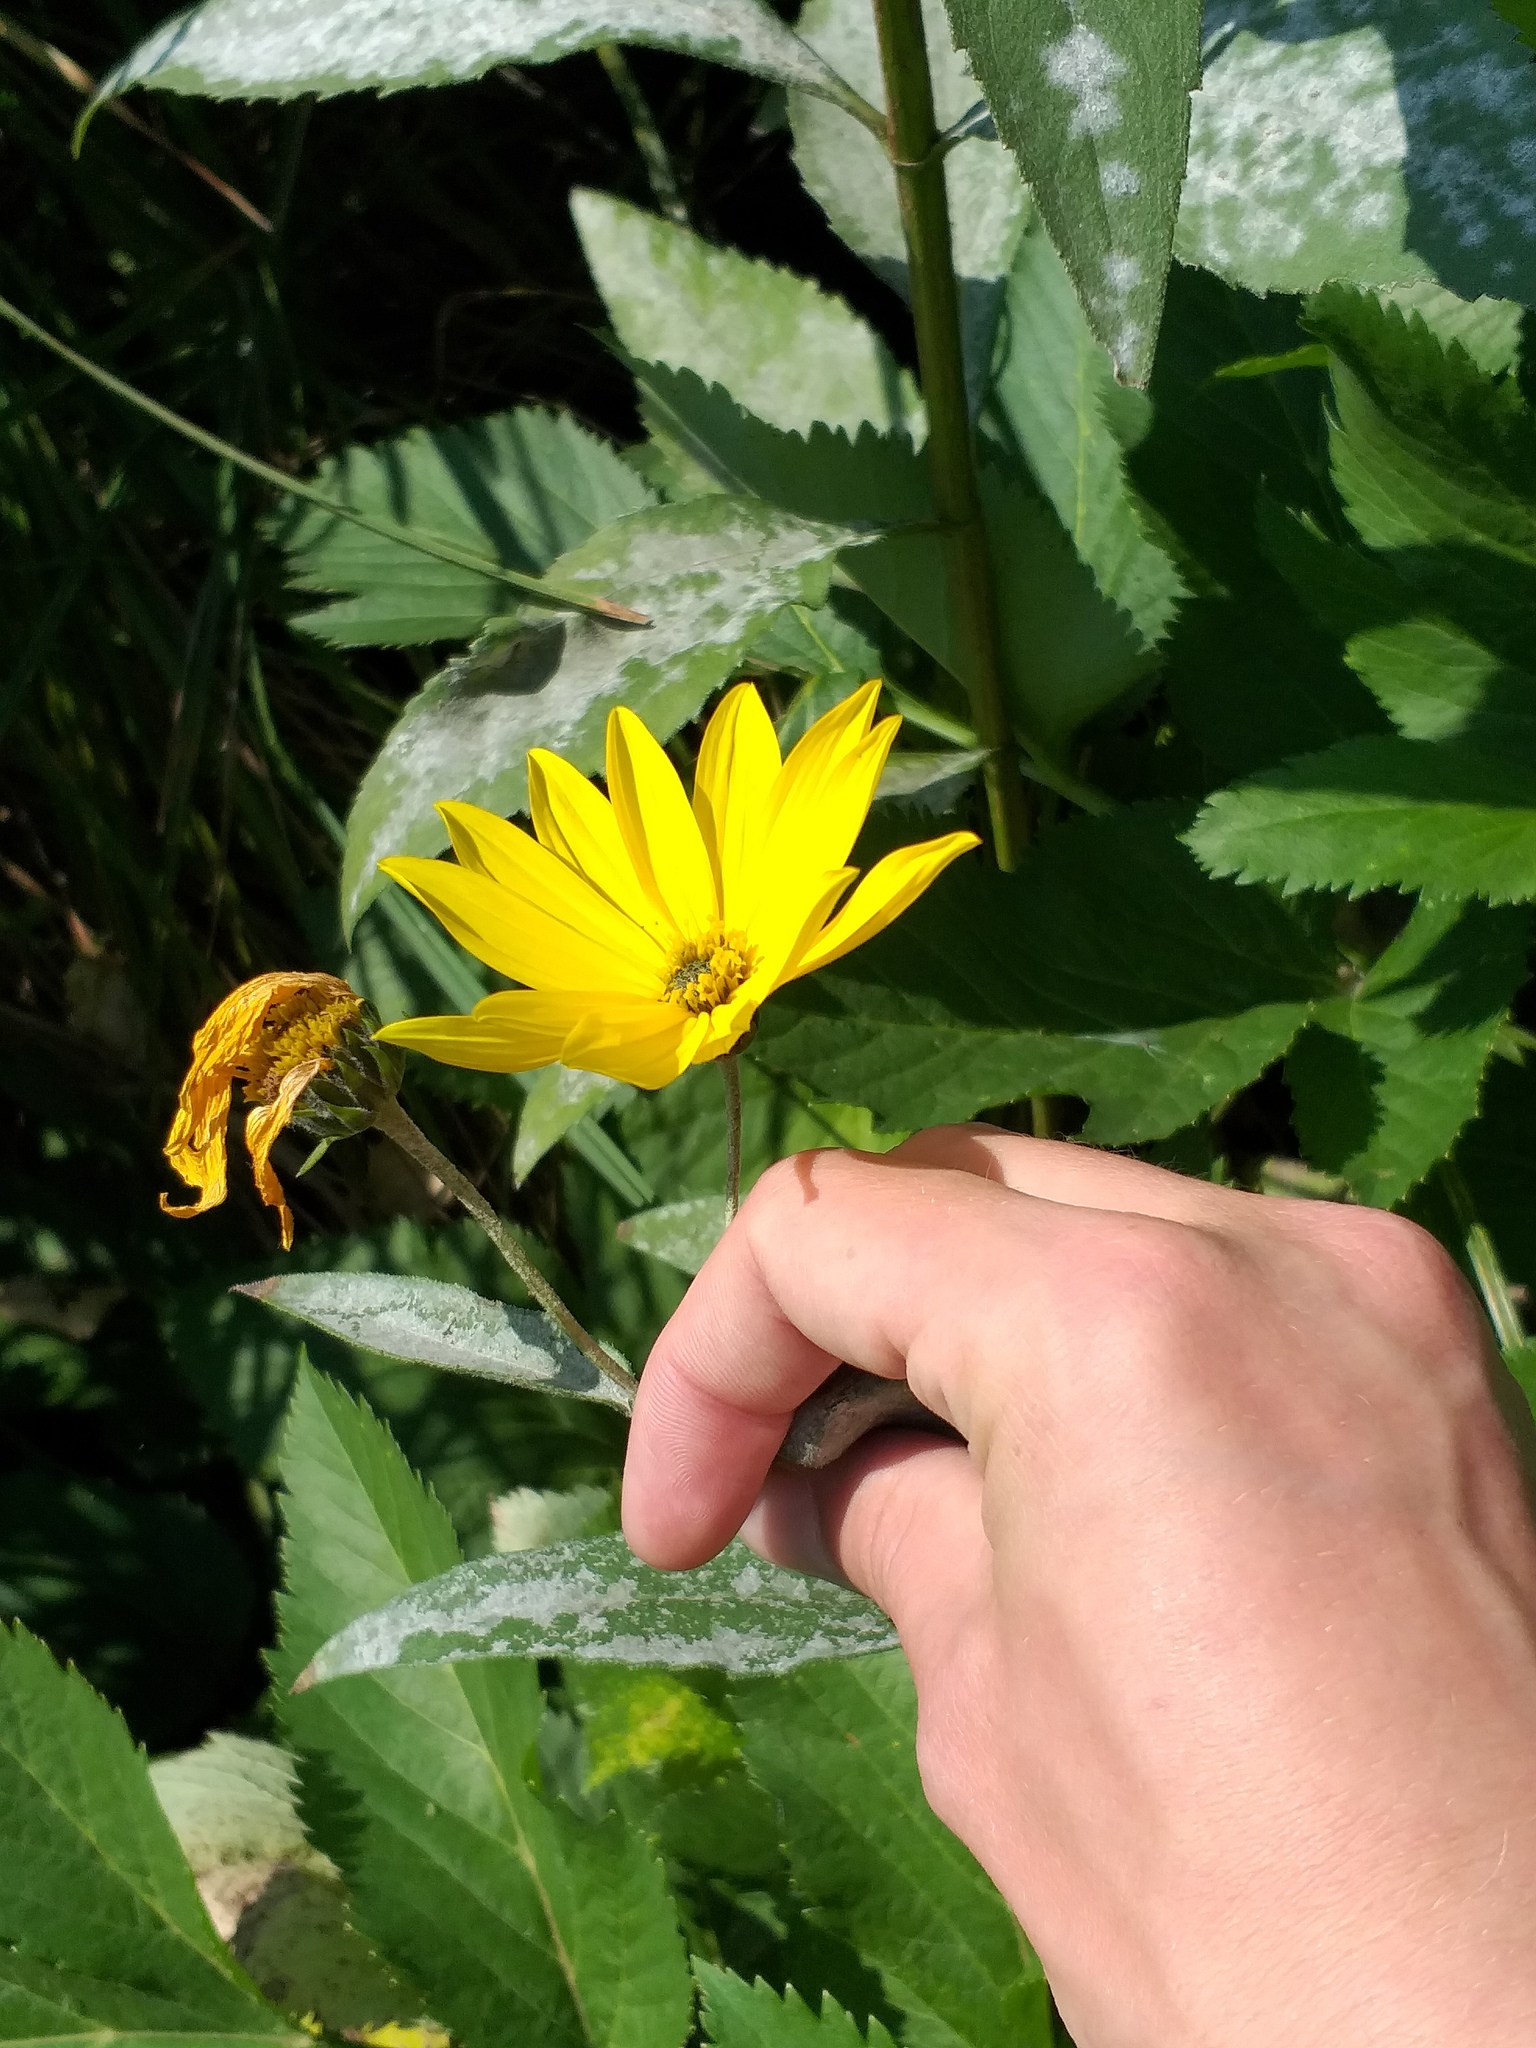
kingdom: Plantae
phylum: Tracheophyta
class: Magnoliopsida
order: Asterales
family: Asteraceae
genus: Helianthus
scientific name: Helianthus tuberosus
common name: Jerusalem artichoke
